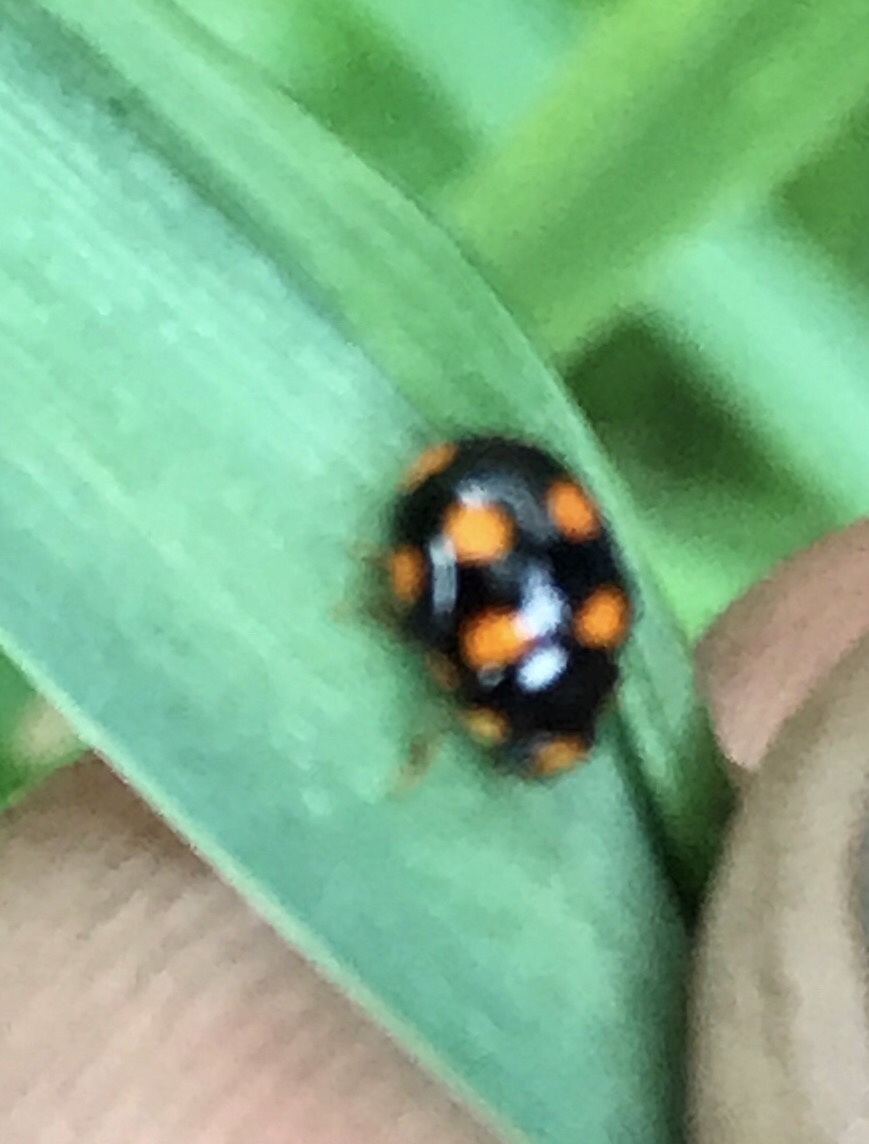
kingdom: Animalia
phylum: Arthropoda
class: Insecta
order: Coleoptera
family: Coccinellidae
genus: Brachiacantha
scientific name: Brachiacantha ursina
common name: Ursine spurleg lady beetle
